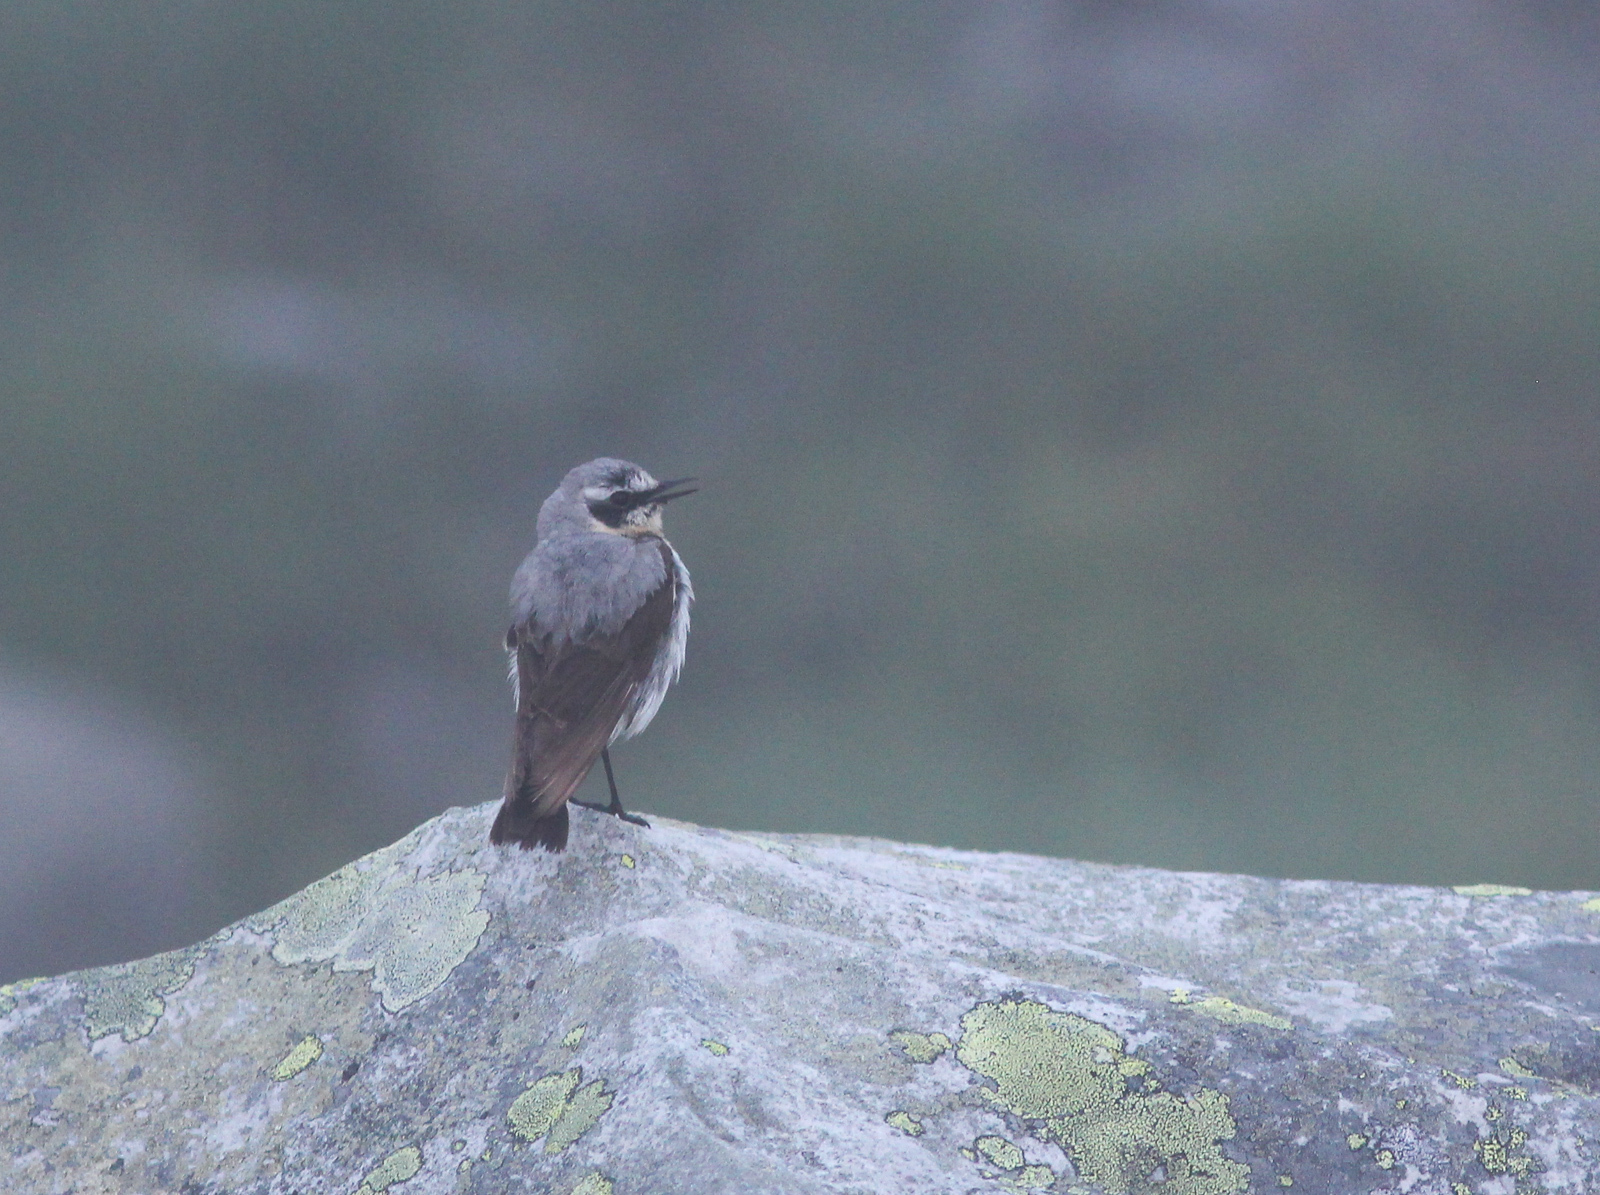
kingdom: Animalia
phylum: Chordata
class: Aves
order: Passeriformes
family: Muscicapidae
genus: Oenanthe
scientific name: Oenanthe oenanthe
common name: Northern wheatear
